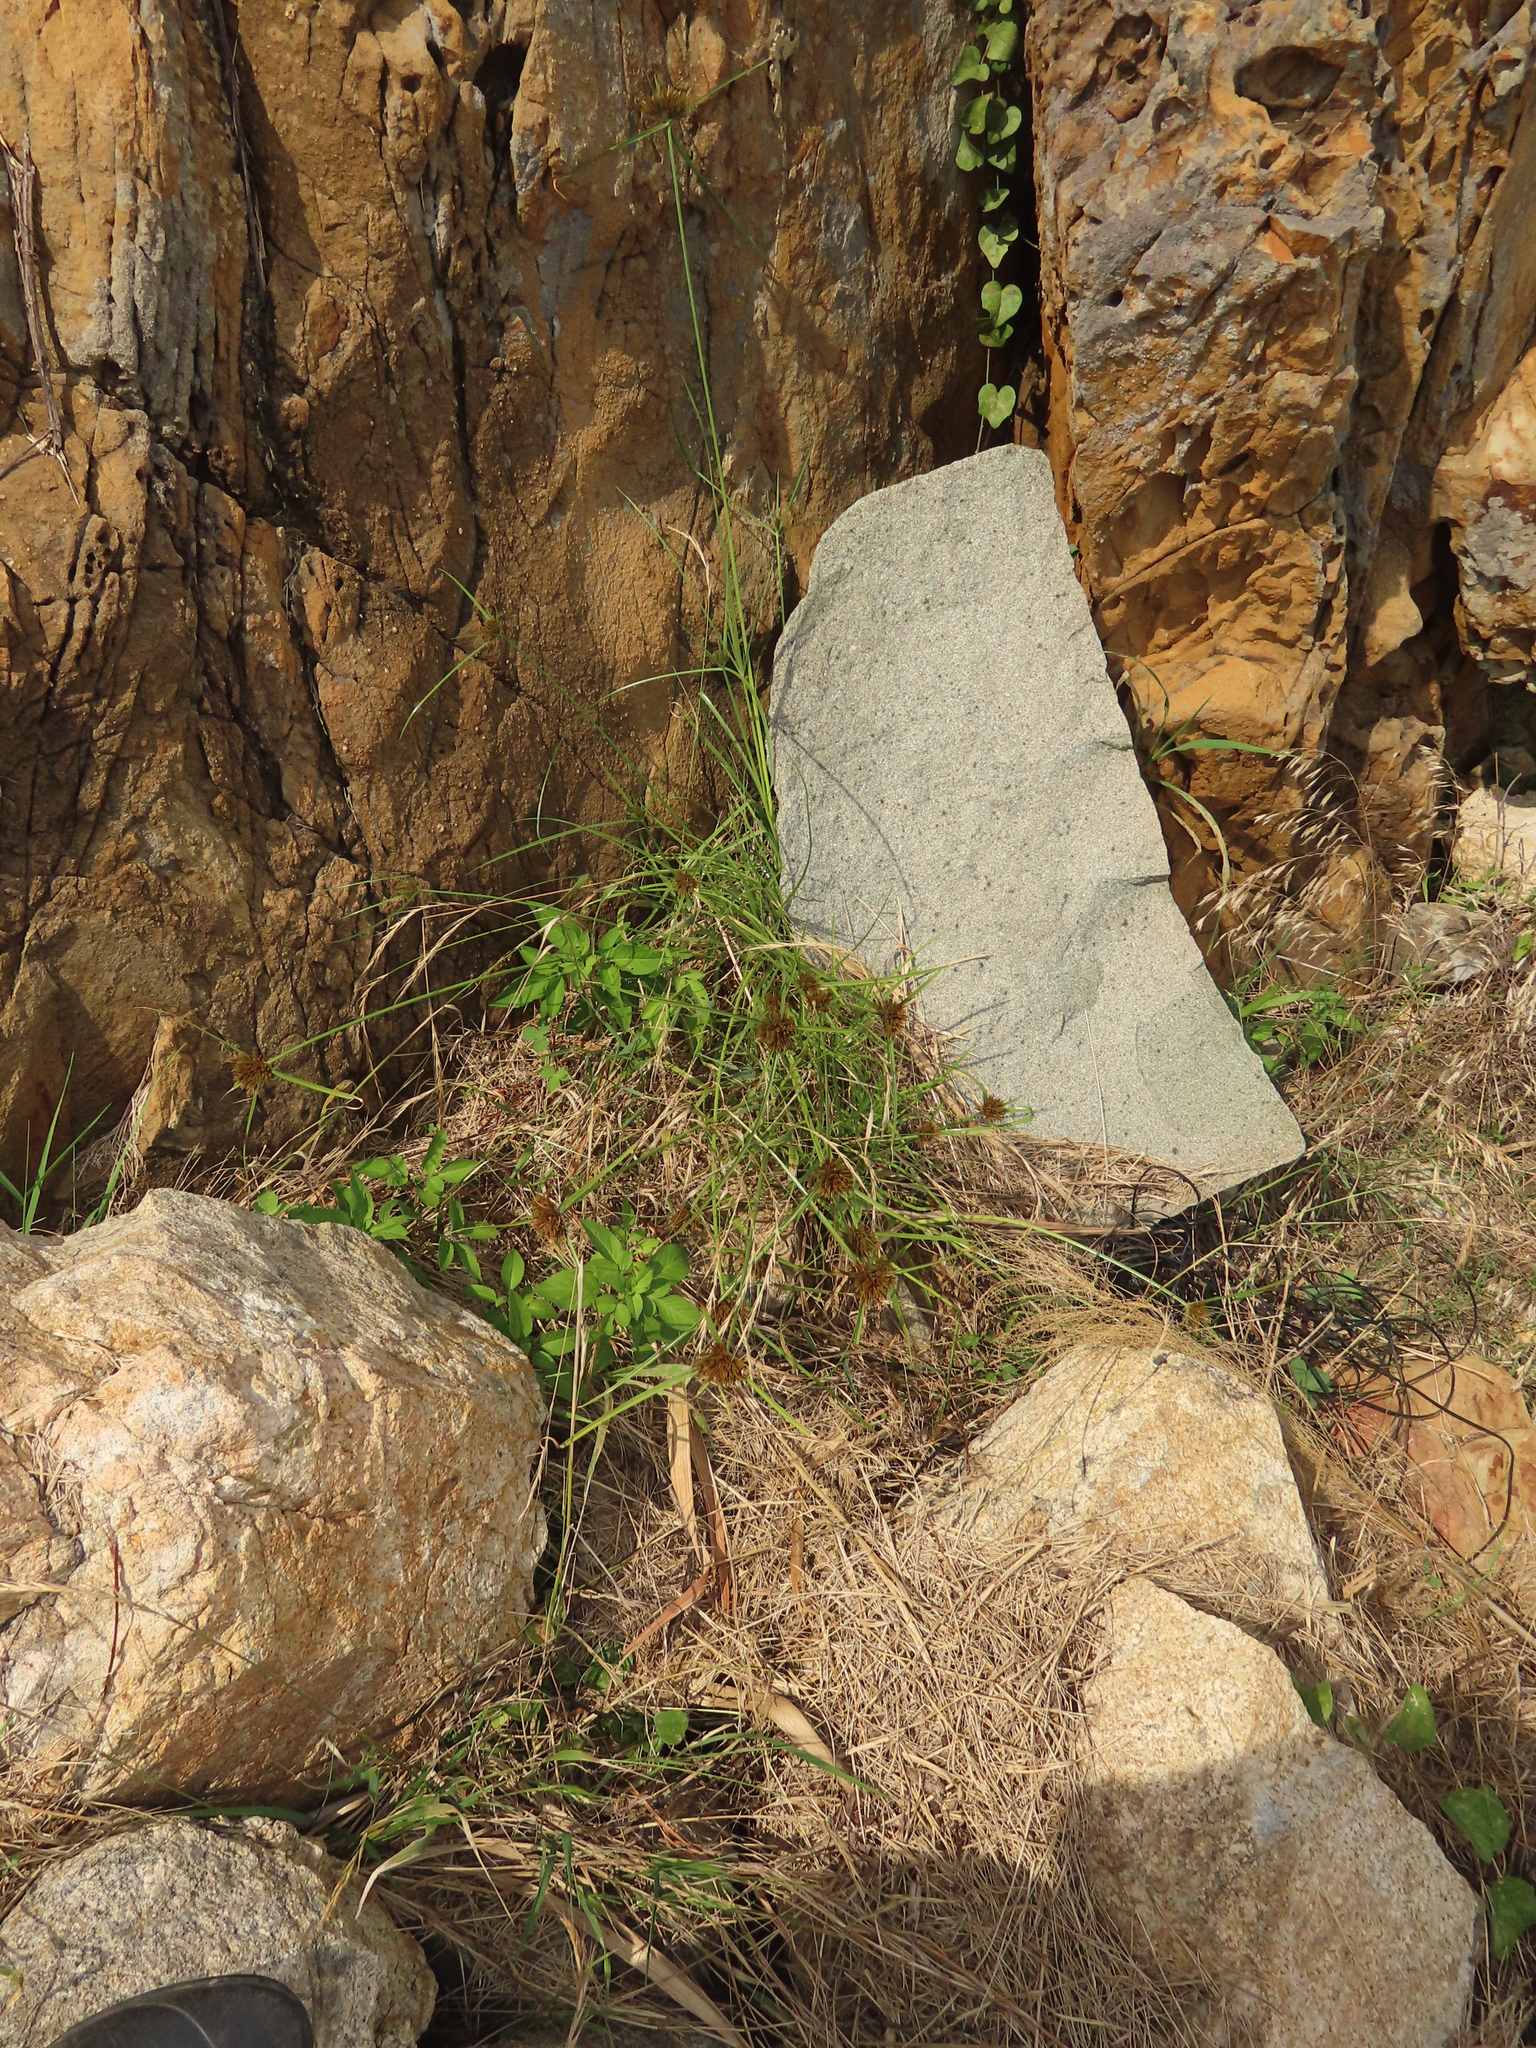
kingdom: Plantae
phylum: Tracheophyta
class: Liliopsida
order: Poales
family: Cyperaceae
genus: Cyperus
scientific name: Cyperus polystachyos
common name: Bunchy flat sedge
